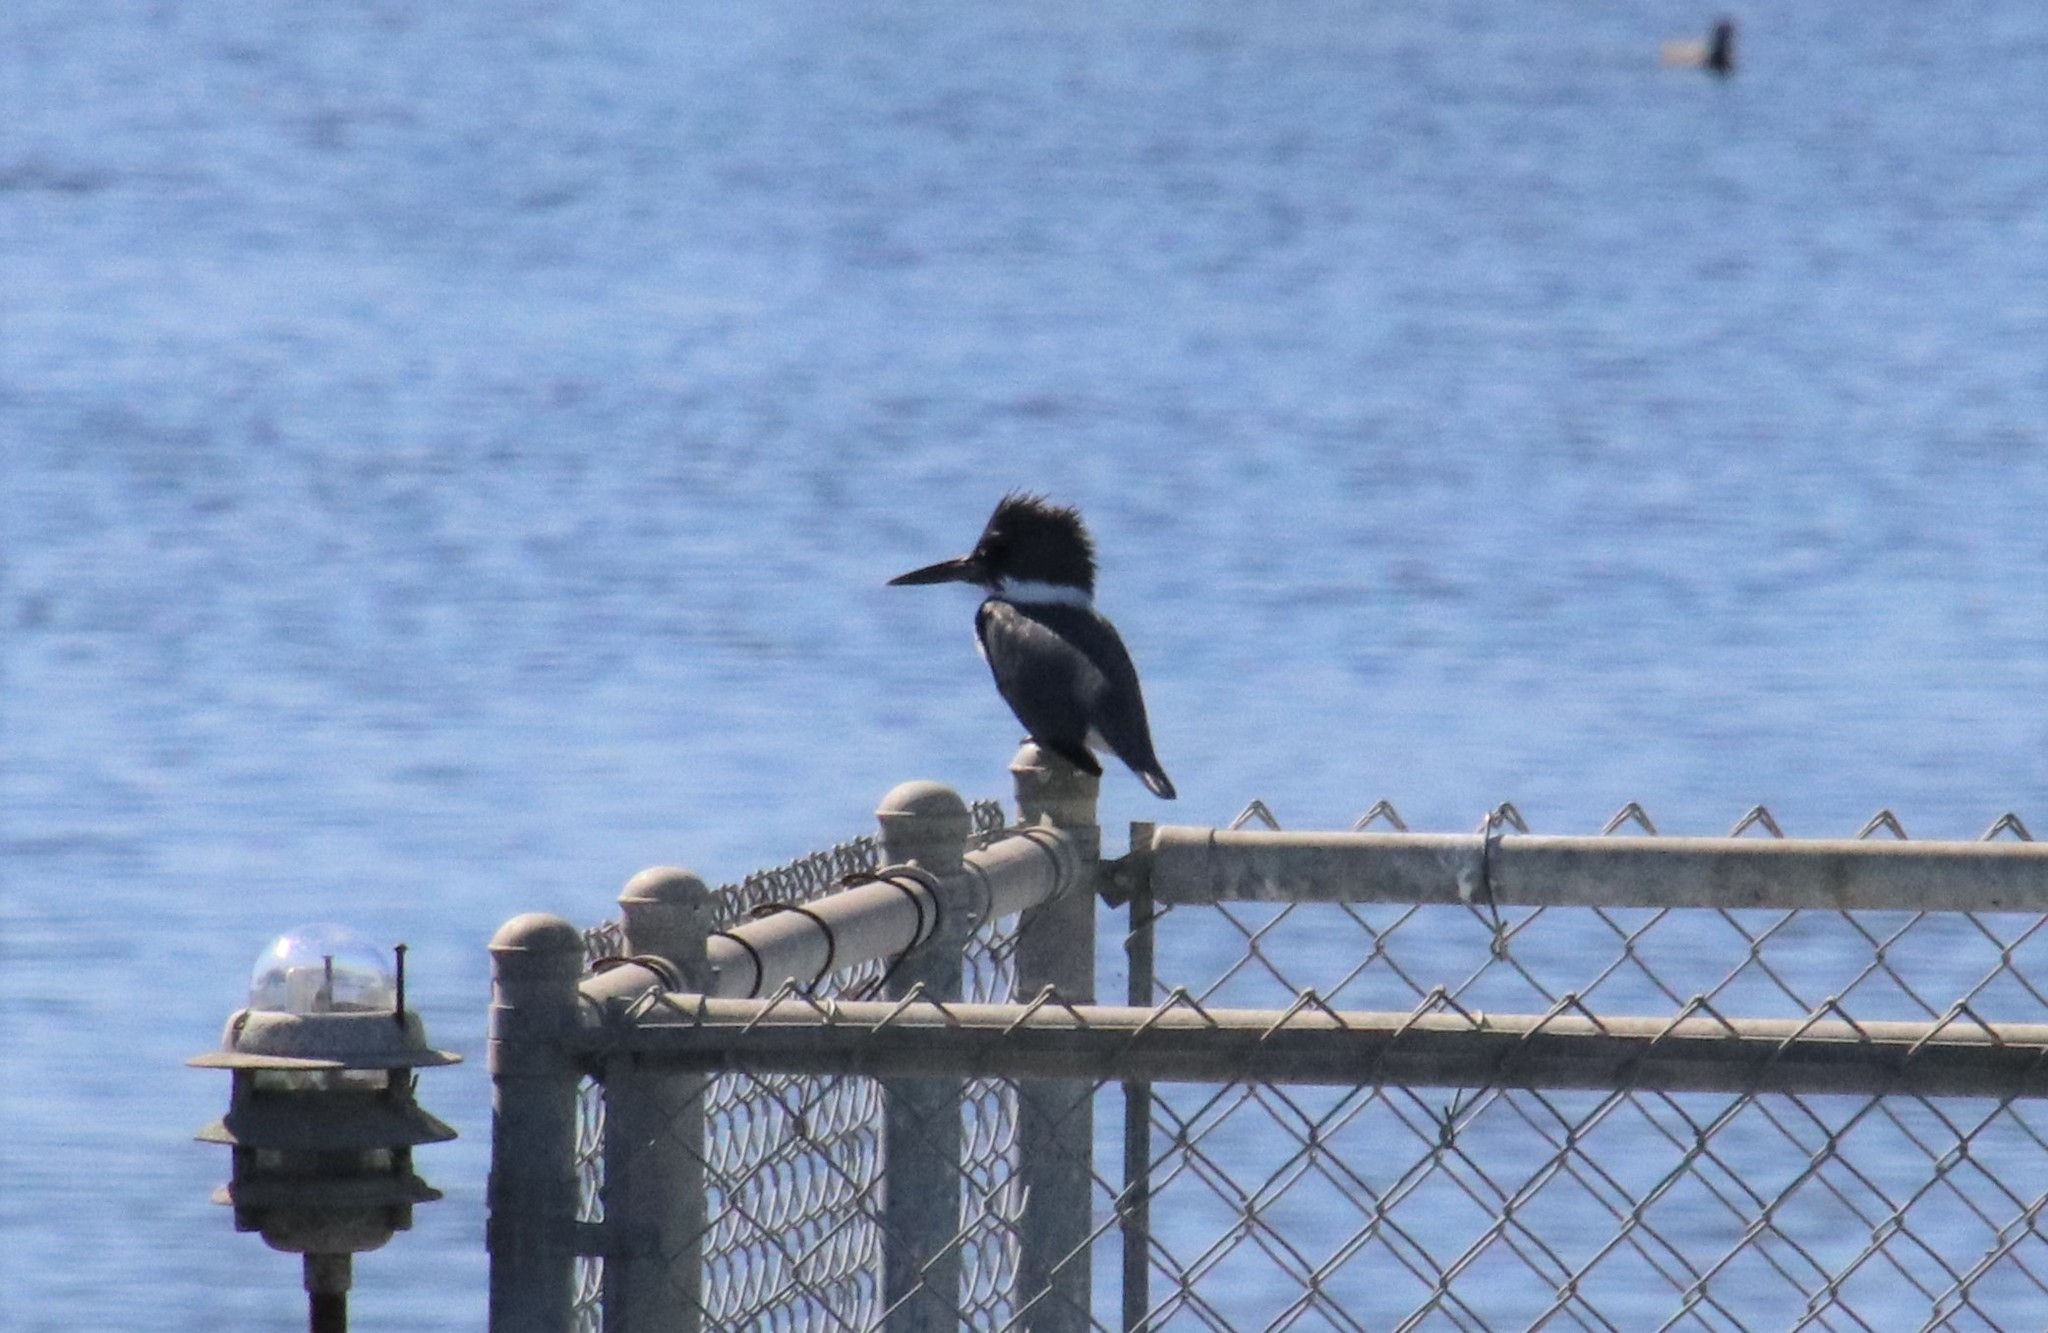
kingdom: Animalia
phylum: Chordata
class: Aves
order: Coraciiformes
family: Alcedinidae
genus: Megaceryle
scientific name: Megaceryle alcyon
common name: Belted kingfisher
